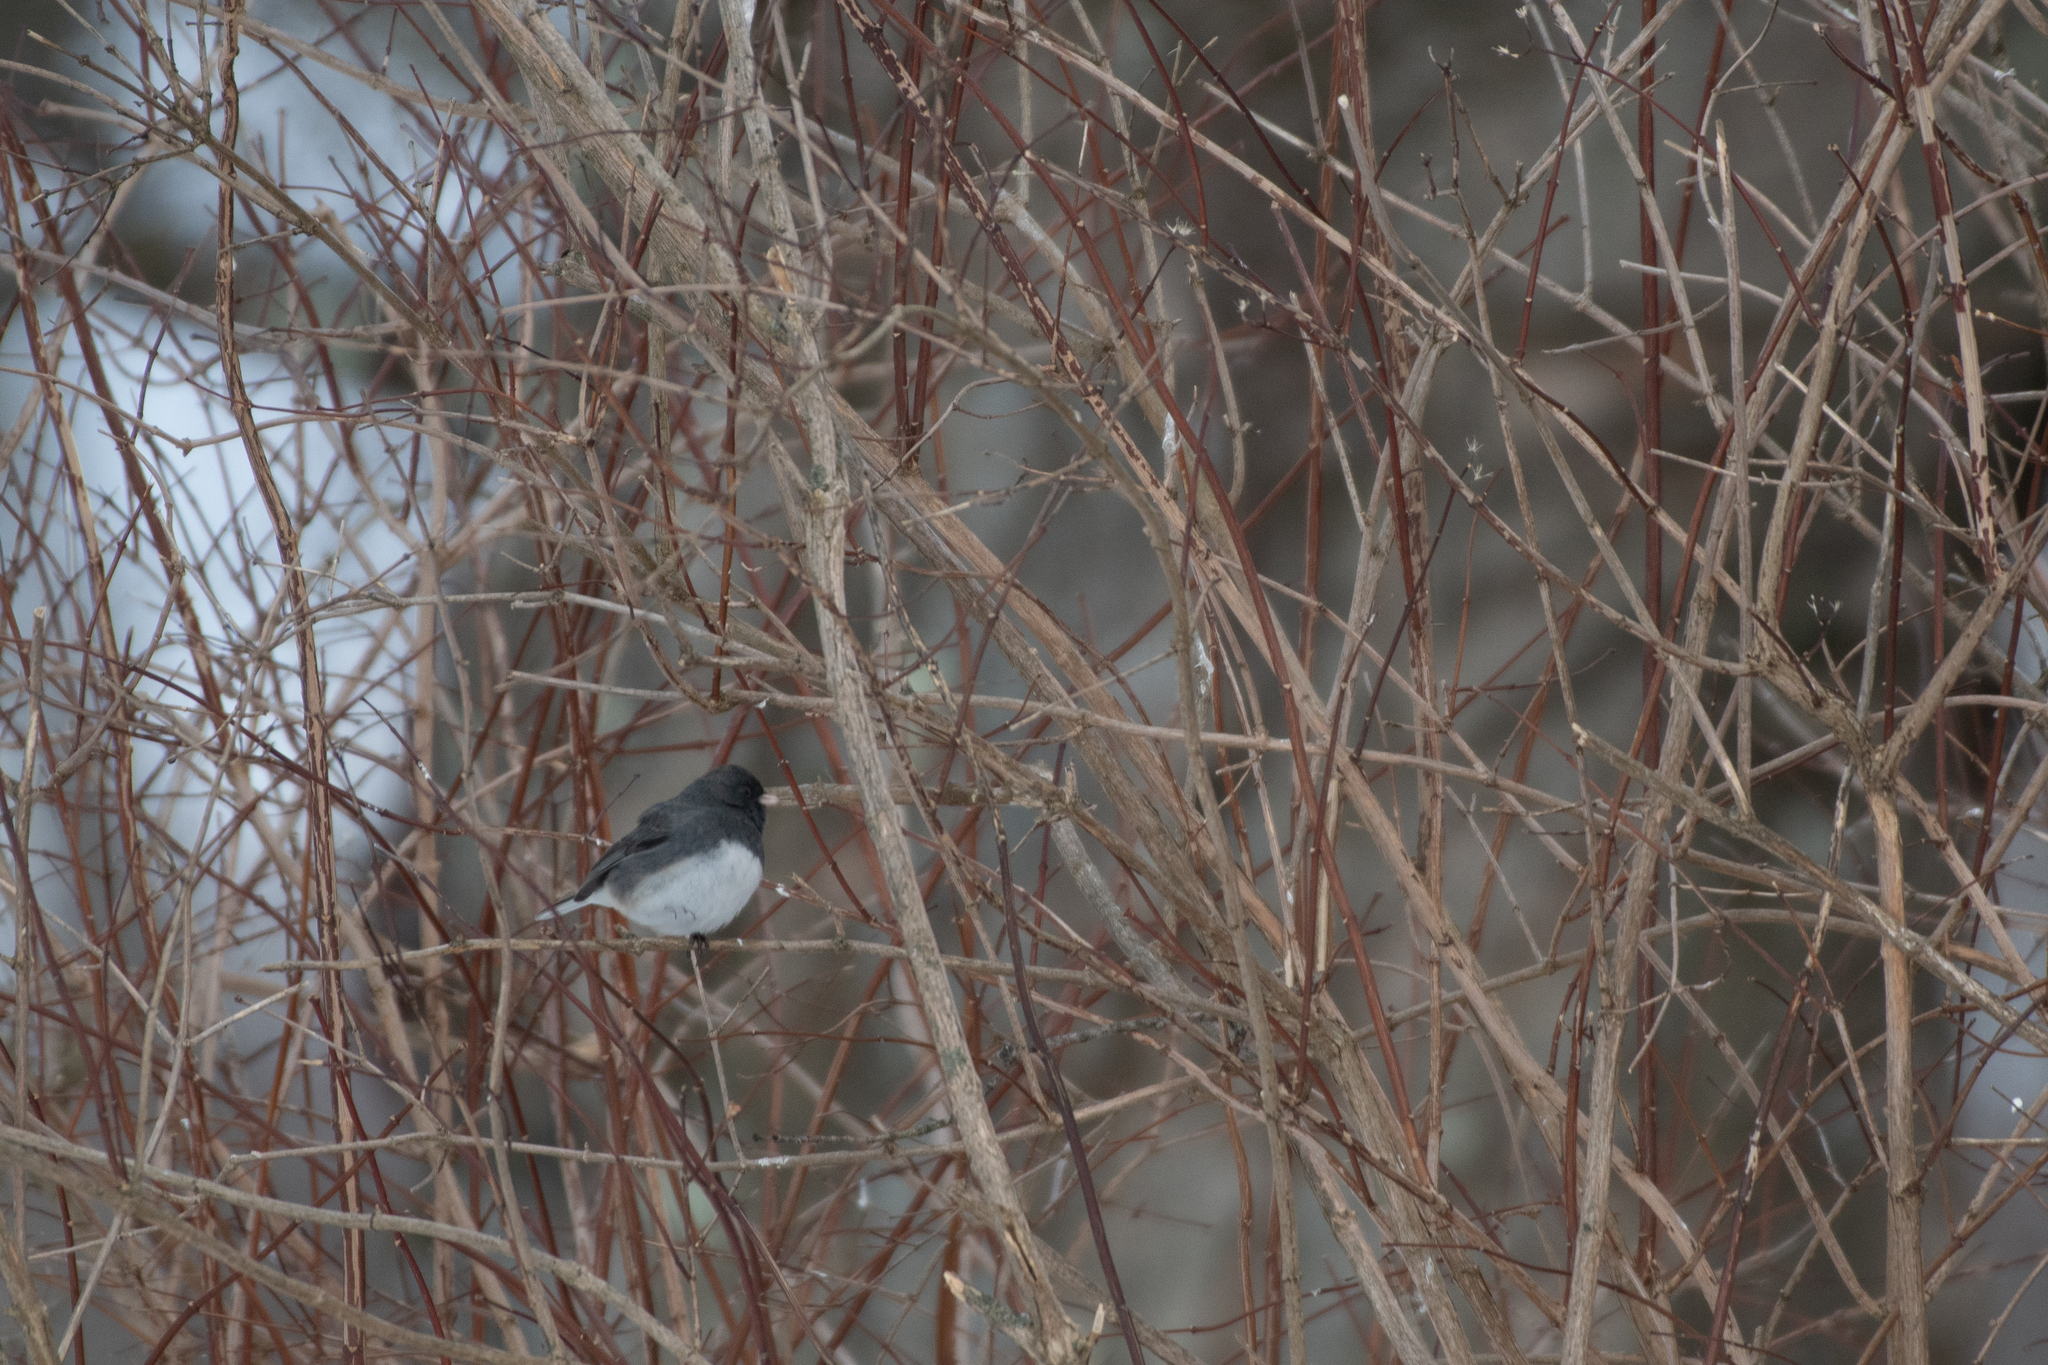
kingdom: Animalia
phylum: Chordata
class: Aves
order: Passeriformes
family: Passerellidae
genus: Junco
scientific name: Junco hyemalis
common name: Dark-eyed junco
